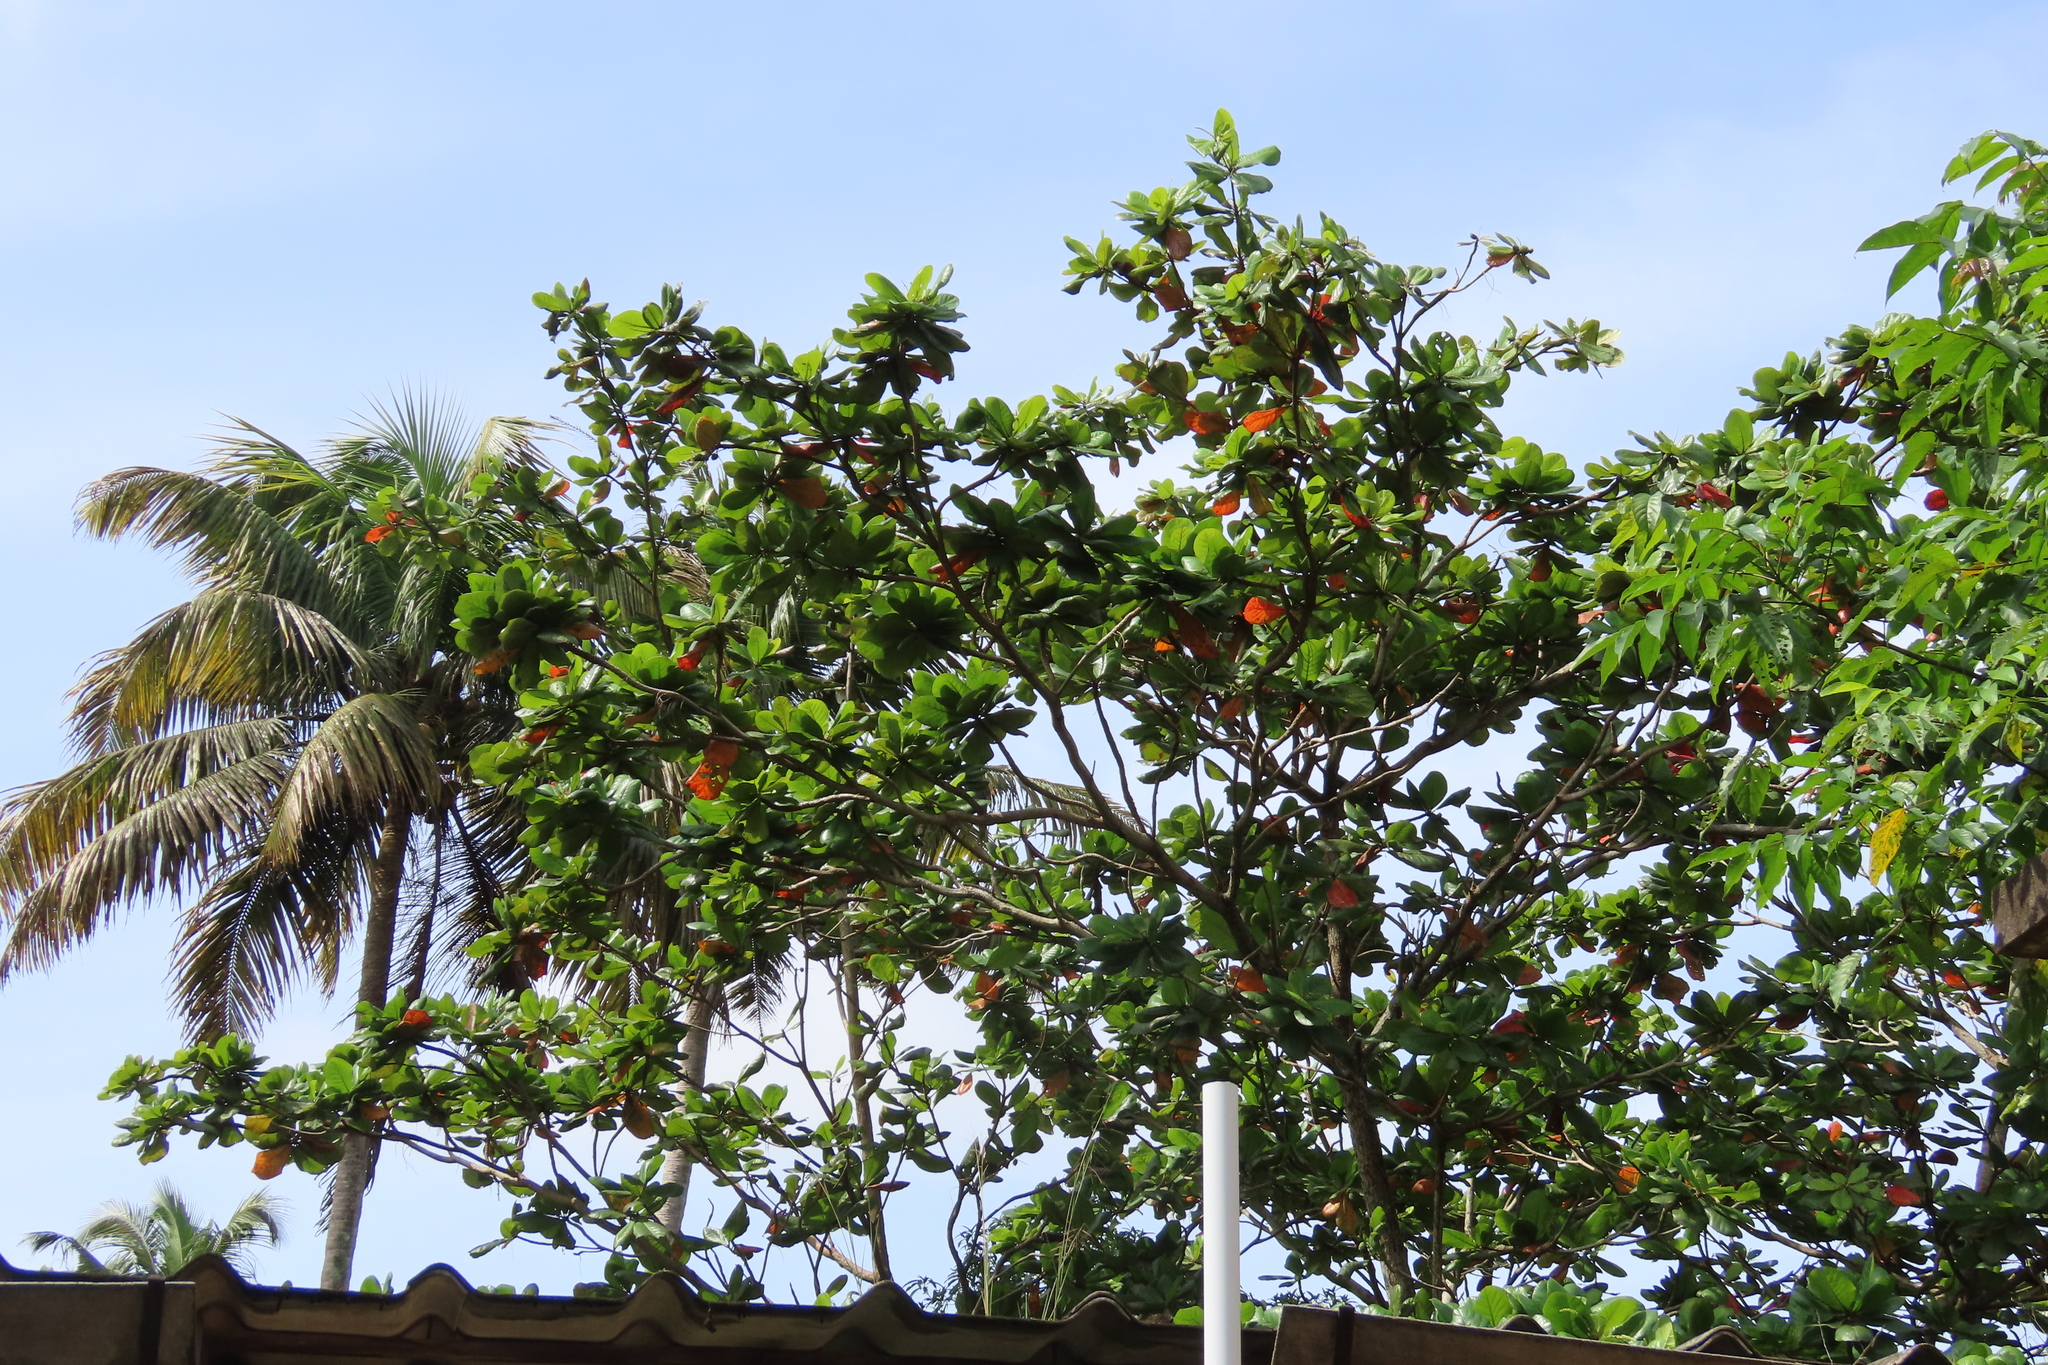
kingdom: Plantae
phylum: Tracheophyta
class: Magnoliopsida
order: Myrtales
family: Combretaceae
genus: Terminalia
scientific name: Terminalia catappa
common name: Tropical almond
